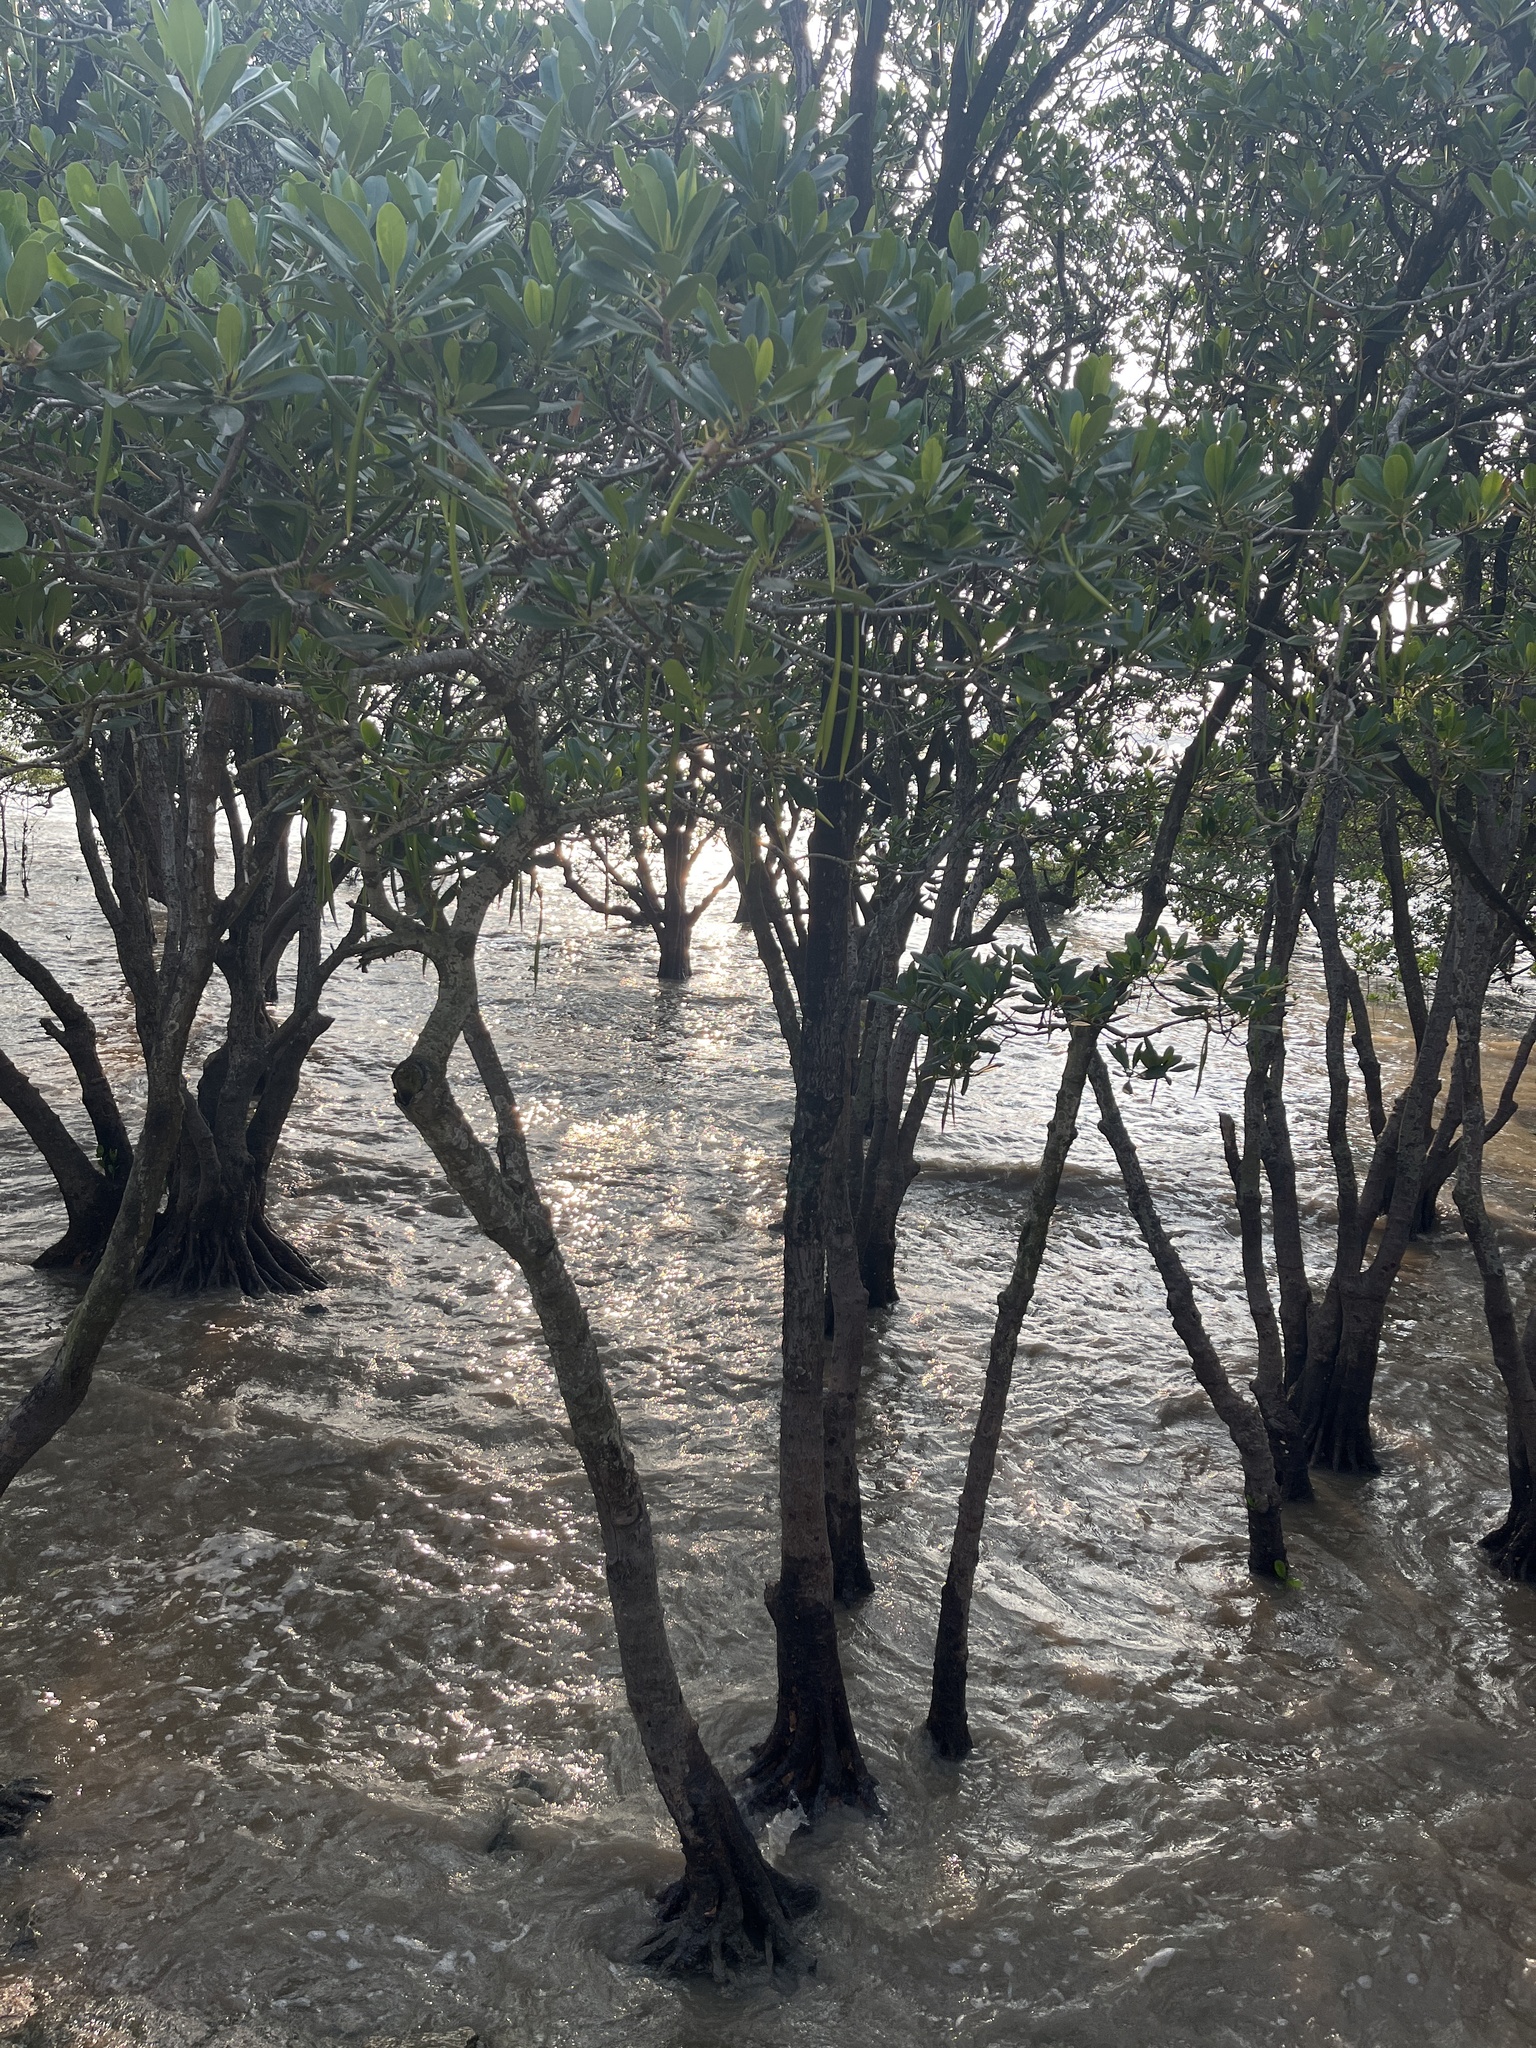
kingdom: Plantae
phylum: Tracheophyta
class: Magnoliopsida
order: Malpighiales
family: Rhizophoraceae
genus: Kandelia
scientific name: Kandelia obovata
